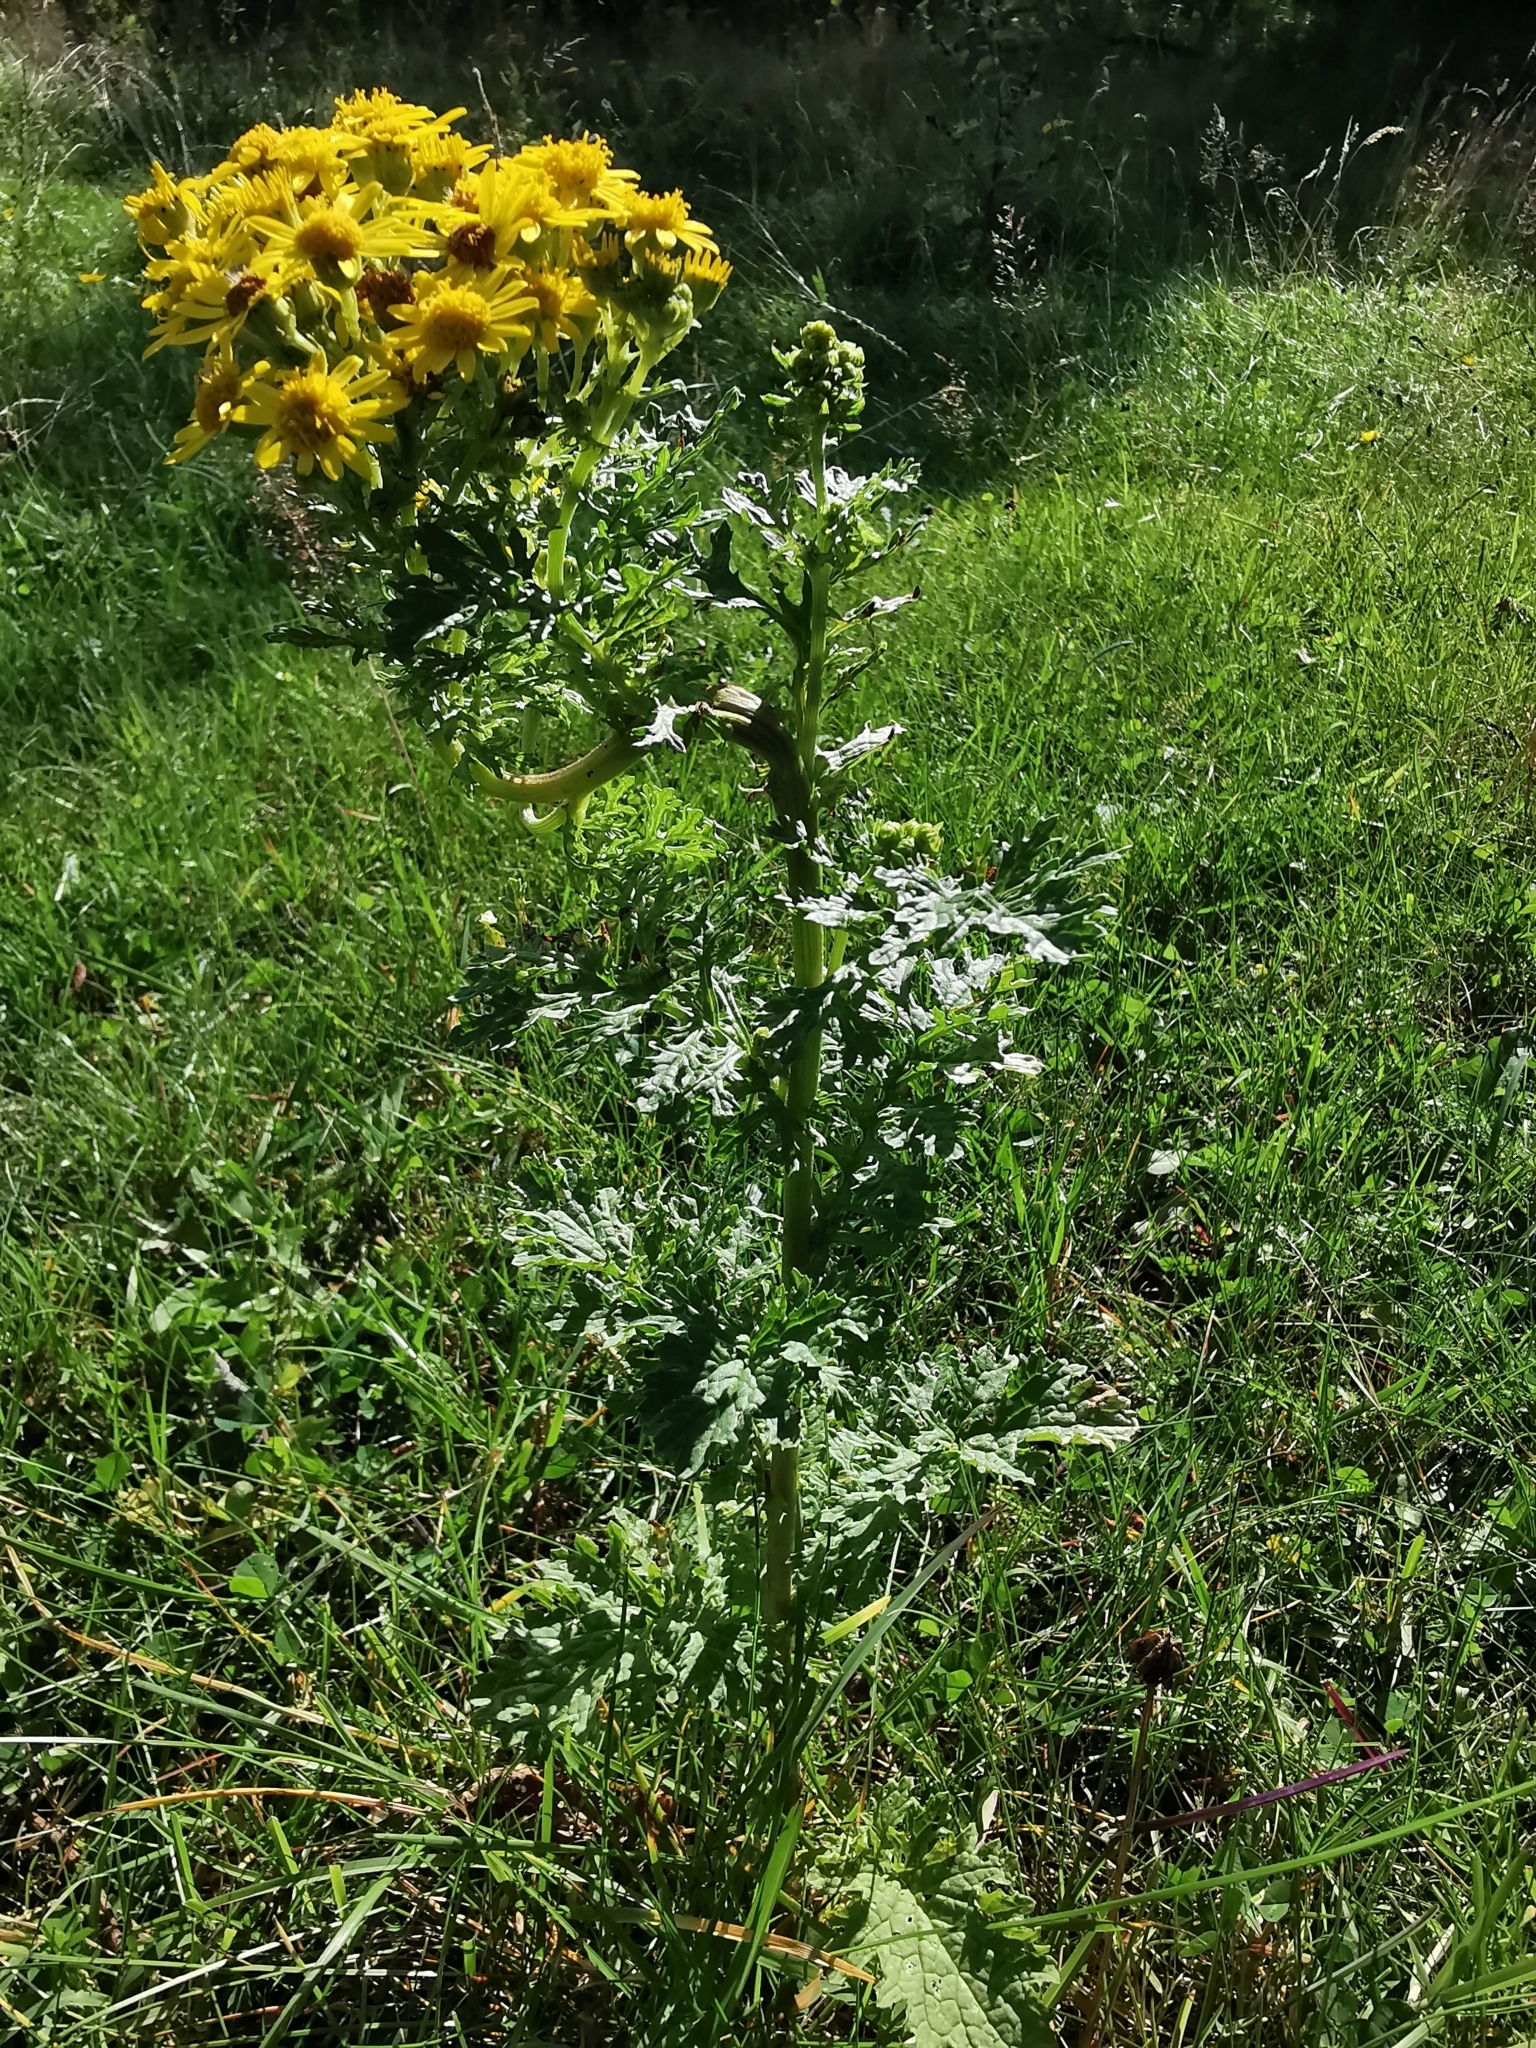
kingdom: Plantae
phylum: Tracheophyta
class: Magnoliopsida
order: Asterales
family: Asteraceae
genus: Jacobaea
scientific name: Jacobaea vulgaris
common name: Stinking willie
